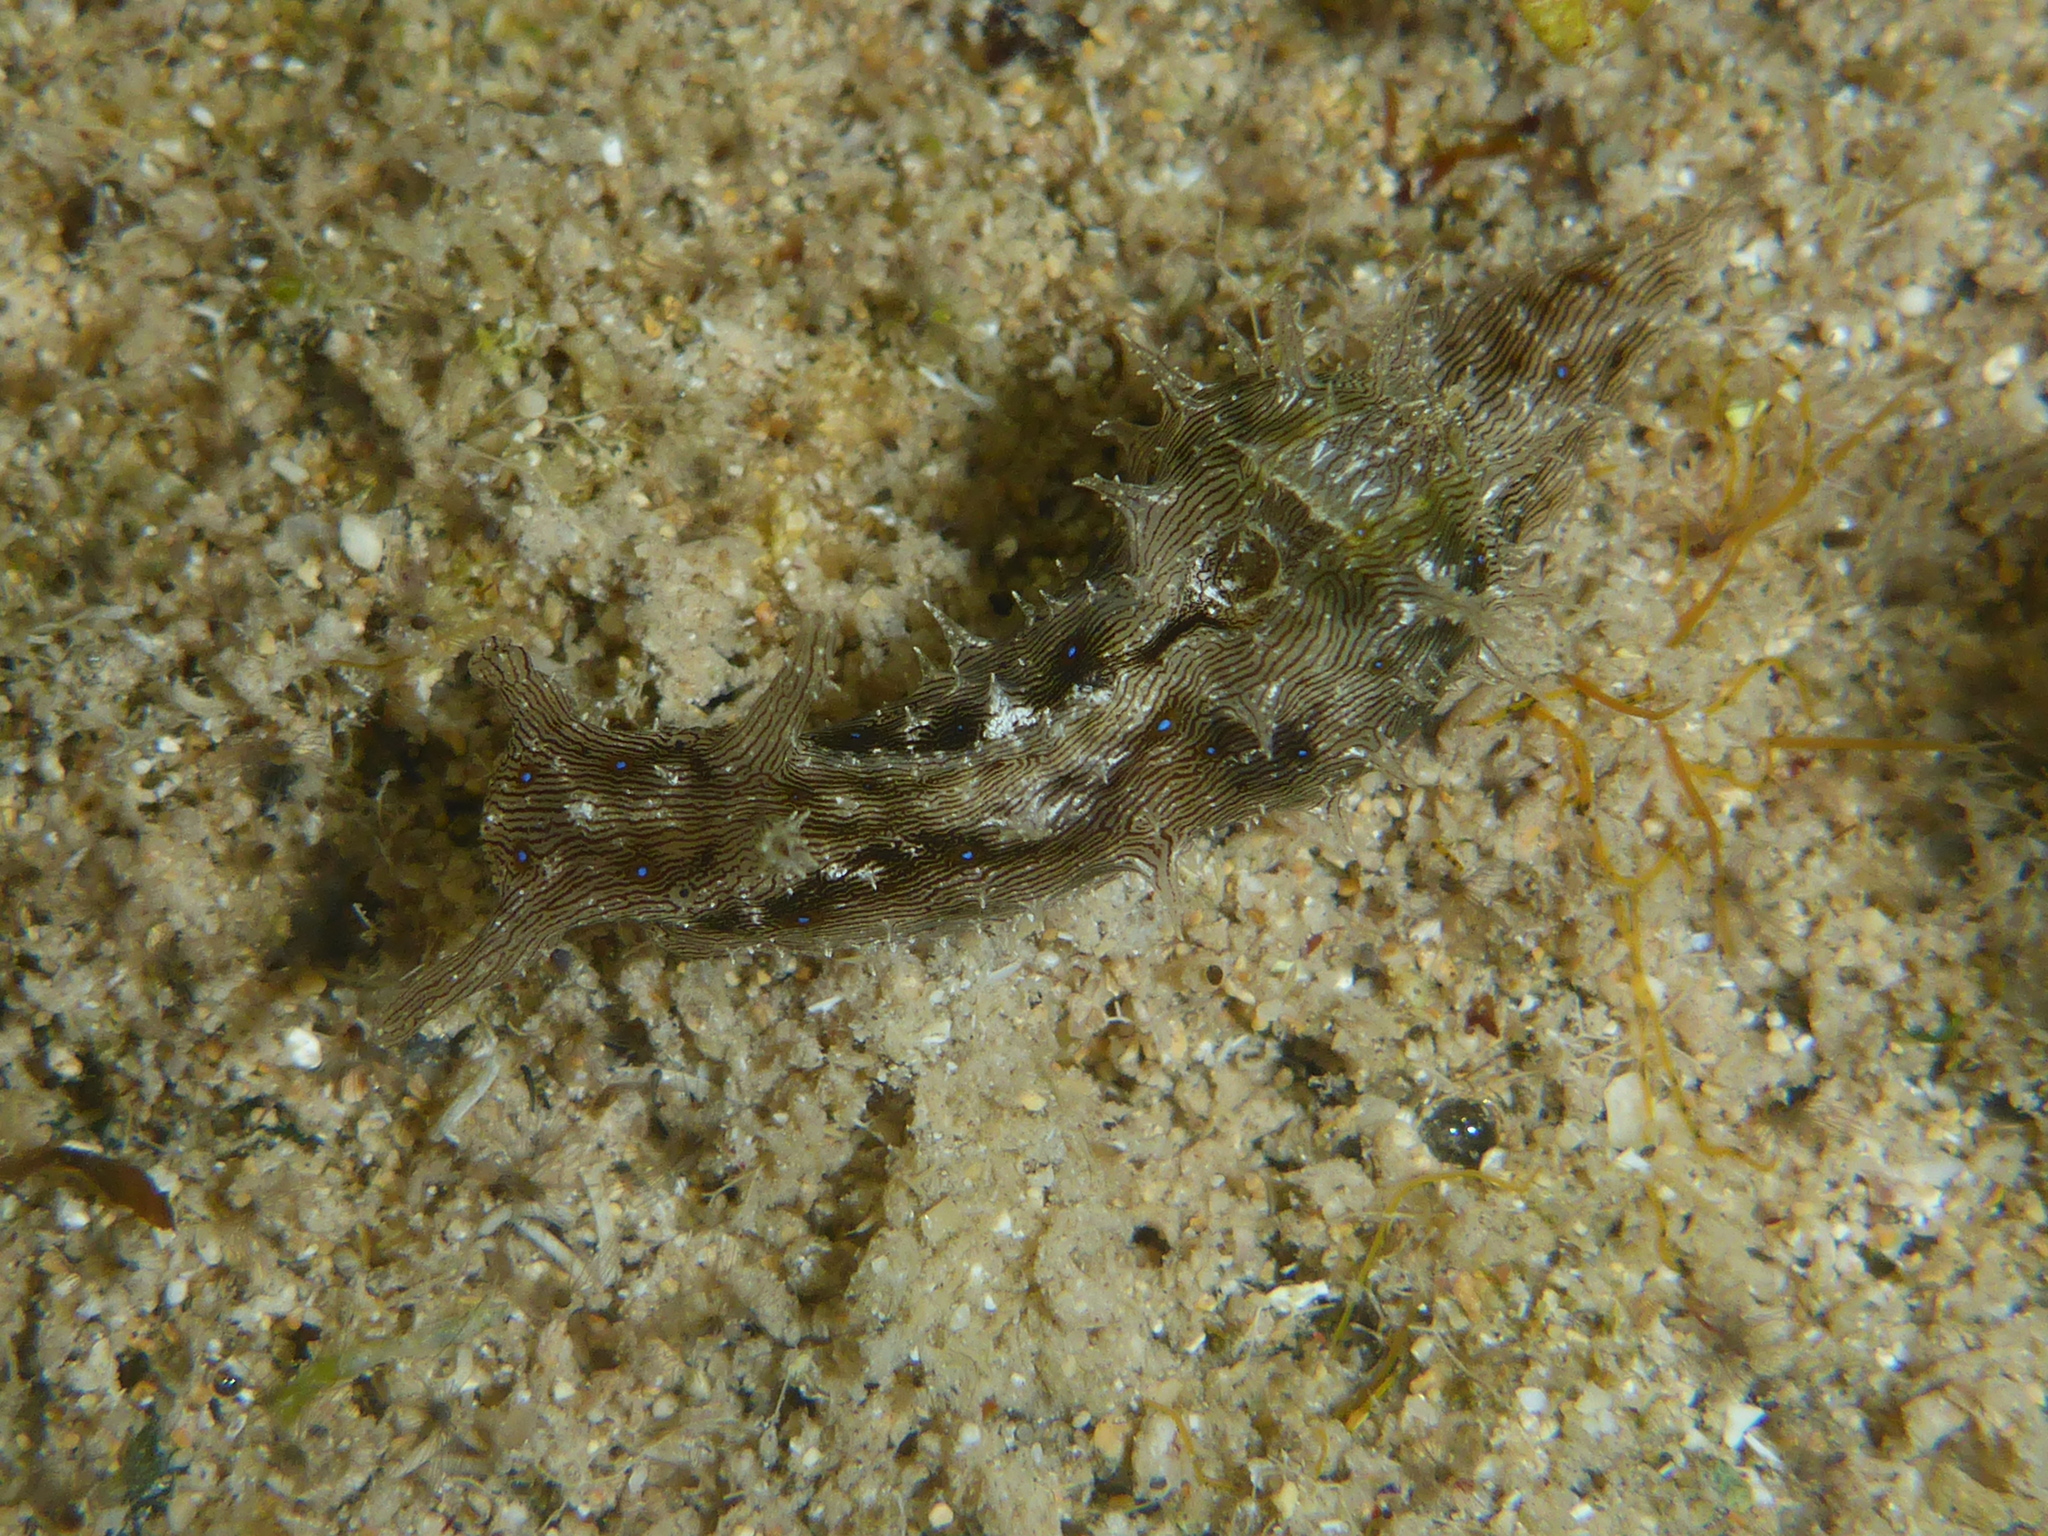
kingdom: Animalia
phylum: Mollusca
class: Gastropoda
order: Aplysiida
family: Aplysiidae
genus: Stylocheilus
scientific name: Stylocheilus striatus
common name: Striated seahare
